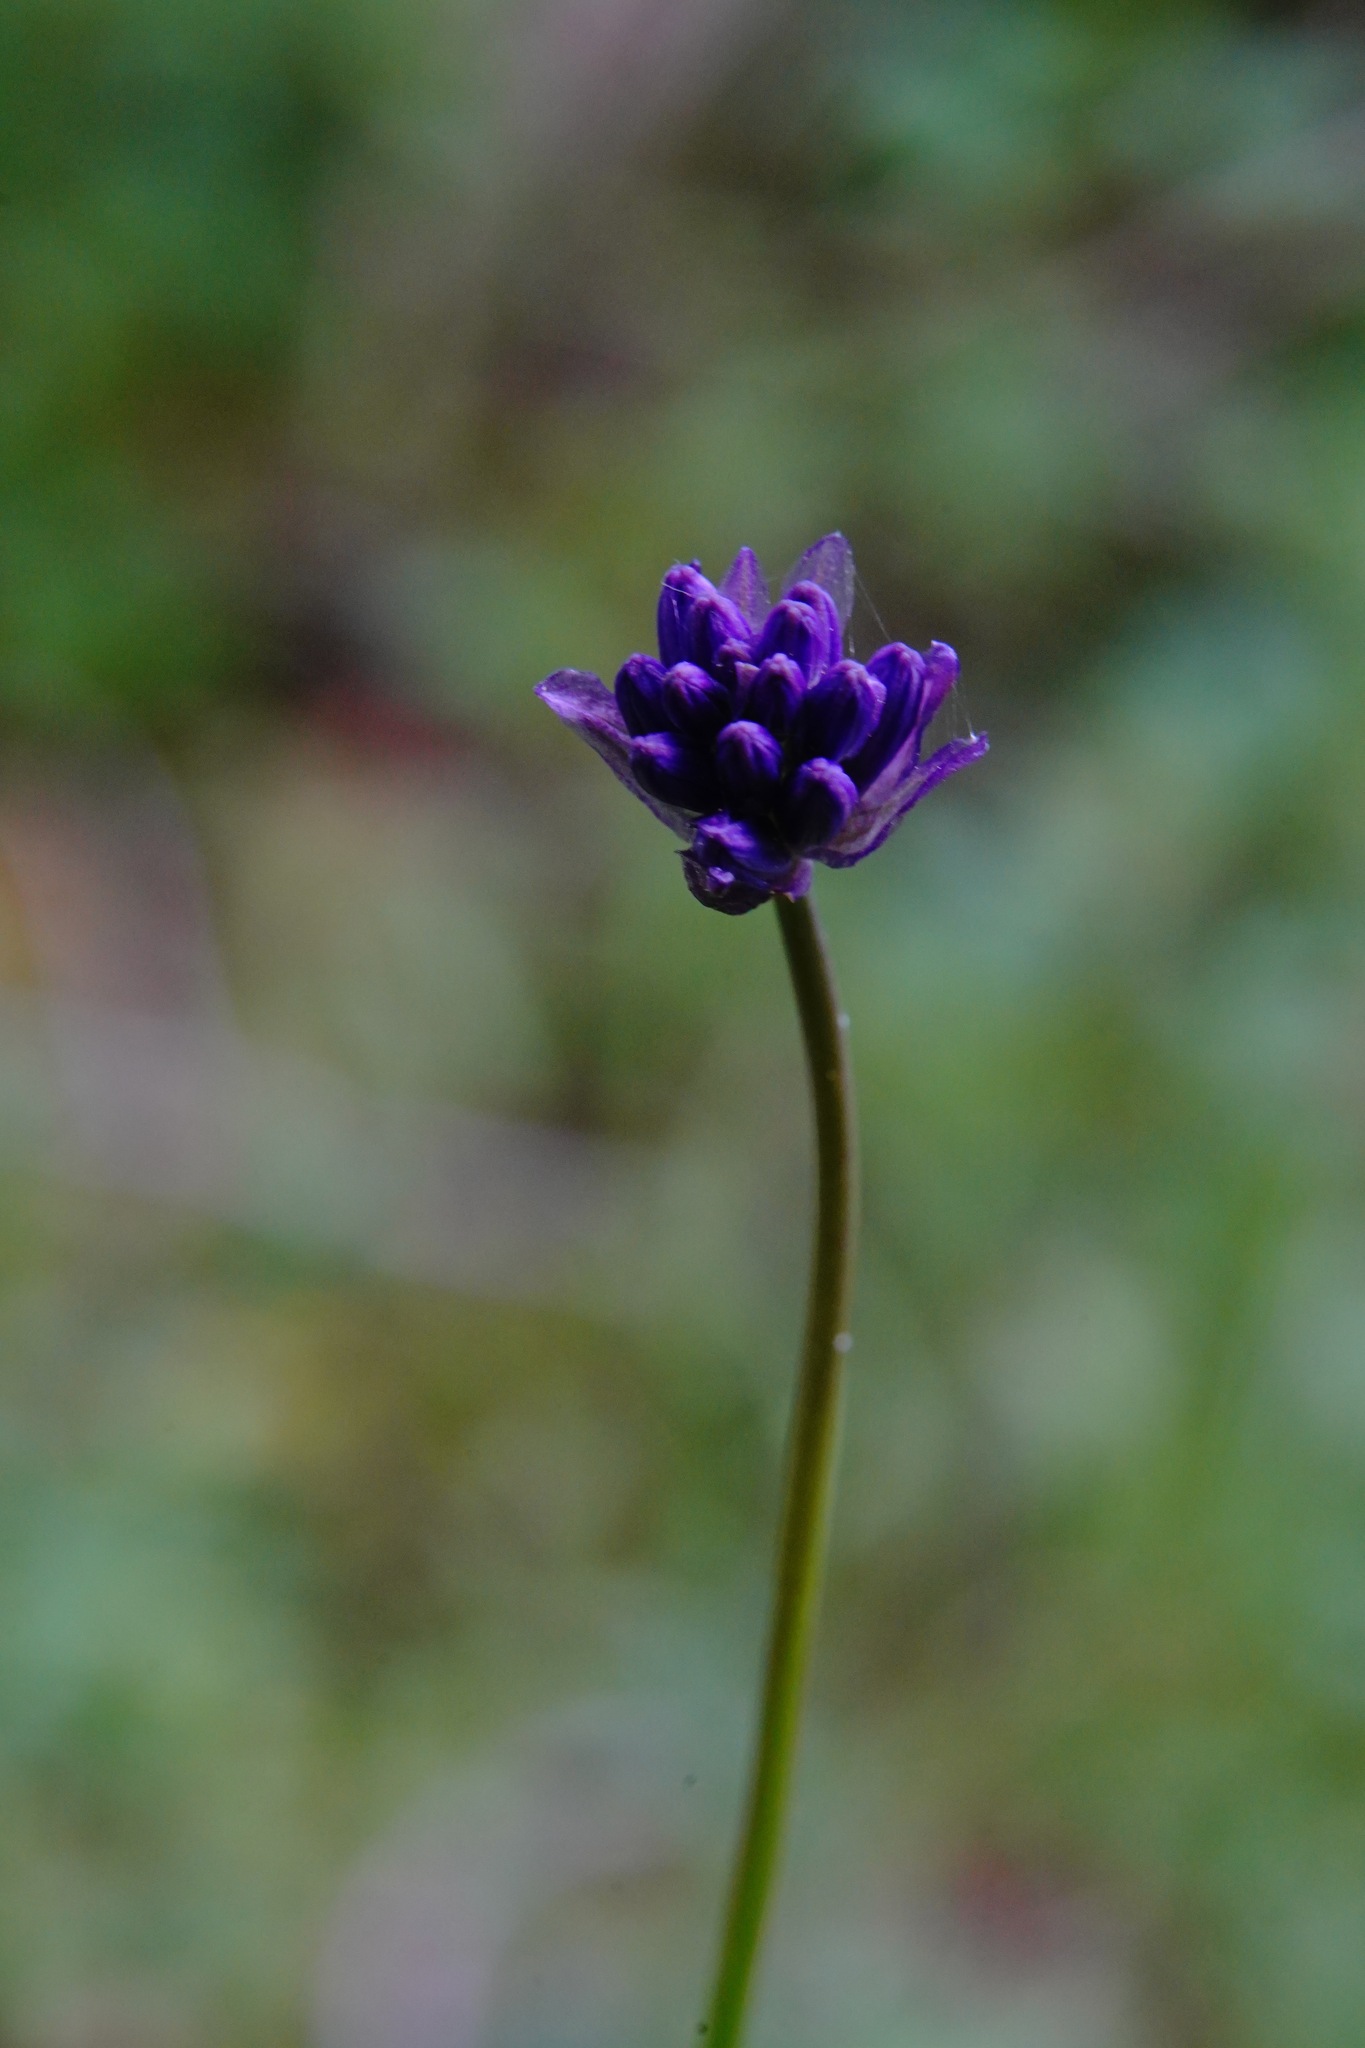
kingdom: Plantae
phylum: Tracheophyta
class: Liliopsida
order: Asparagales
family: Asparagaceae
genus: Dichelostemma
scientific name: Dichelostemma congestum
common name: Fork-tooth ookow
